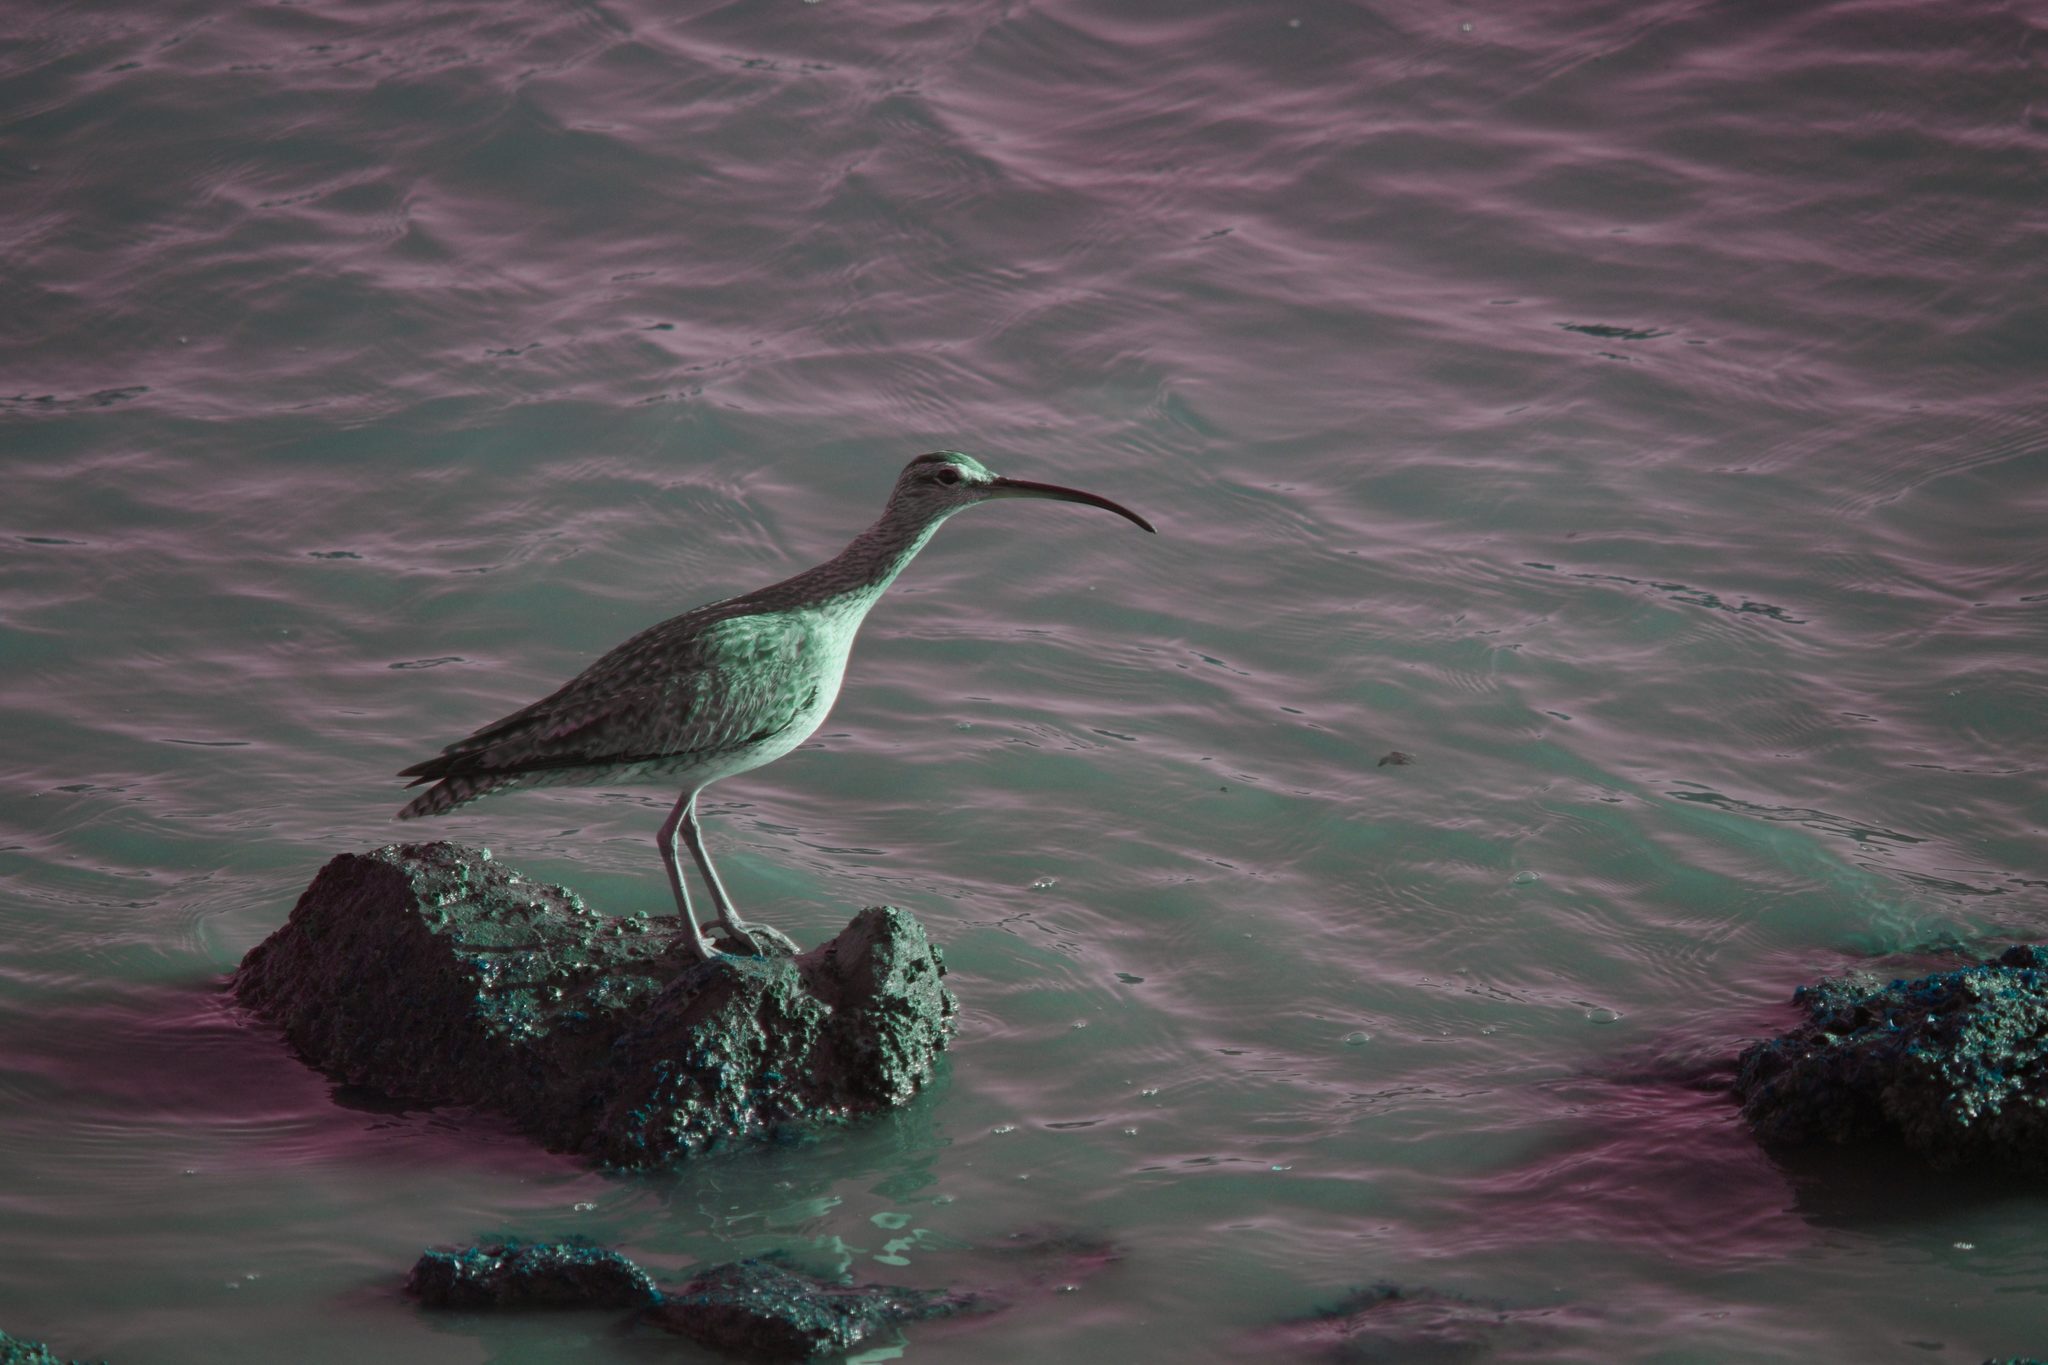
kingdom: Animalia
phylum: Chordata
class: Aves
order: Charadriiformes
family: Scolopacidae
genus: Numenius
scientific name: Numenius phaeopus
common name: Whimbrel
